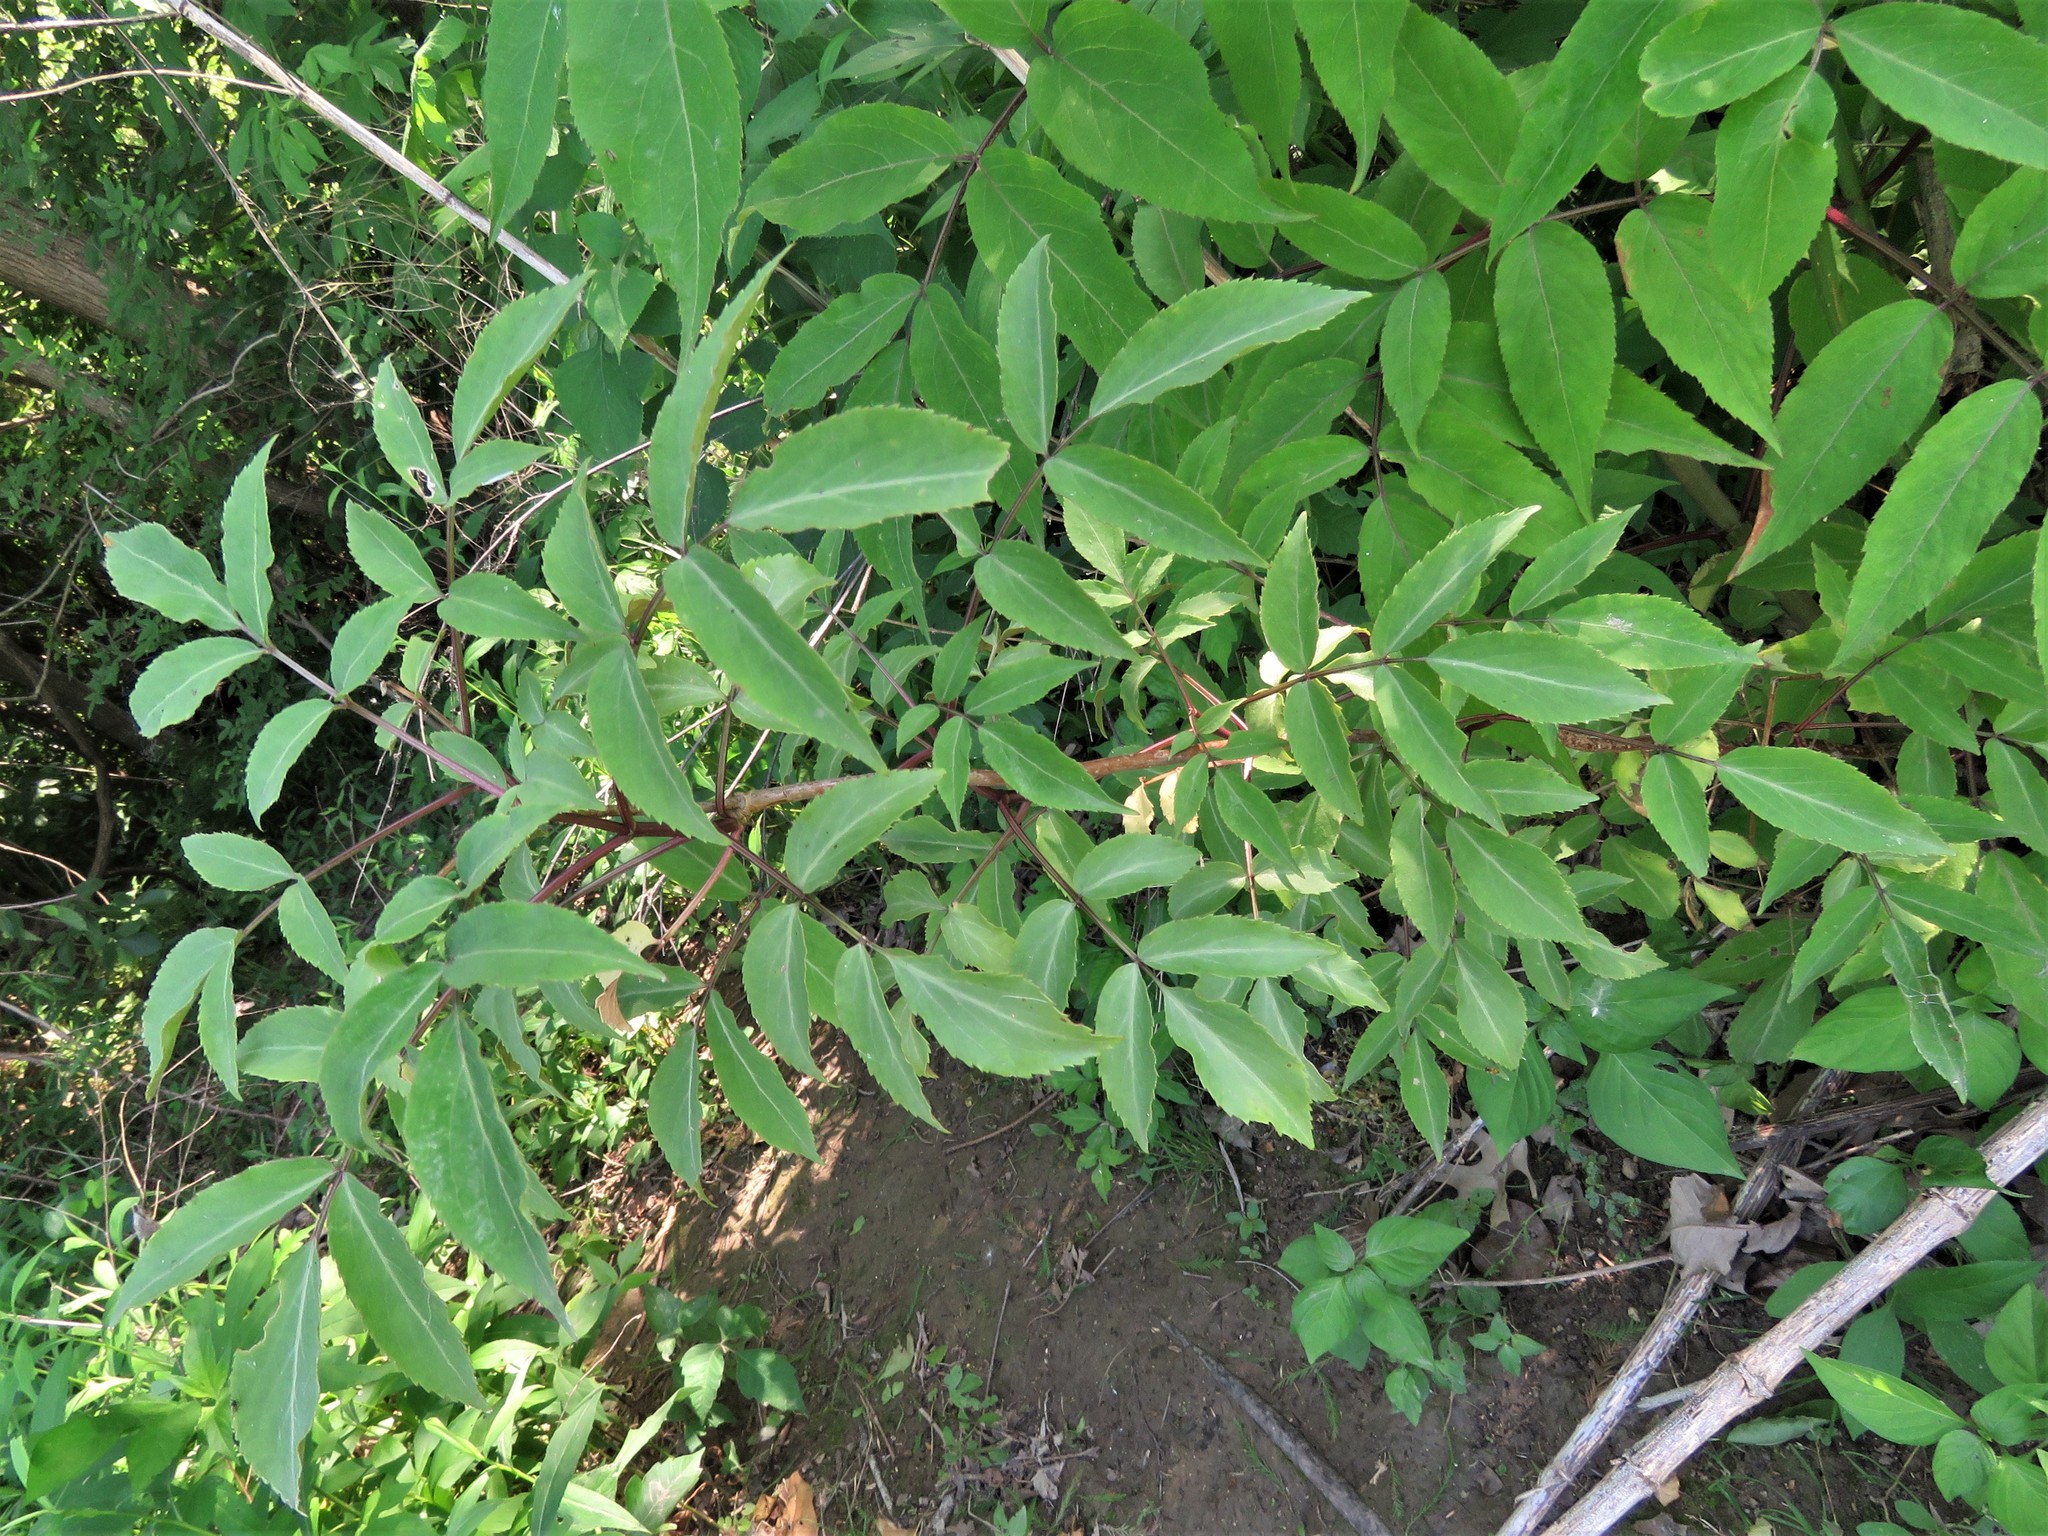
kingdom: Plantae
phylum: Tracheophyta
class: Magnoliopsida
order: Dipsacales
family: Viburnaceae
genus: Sambucus
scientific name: Sambucus canadensis
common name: American elder
